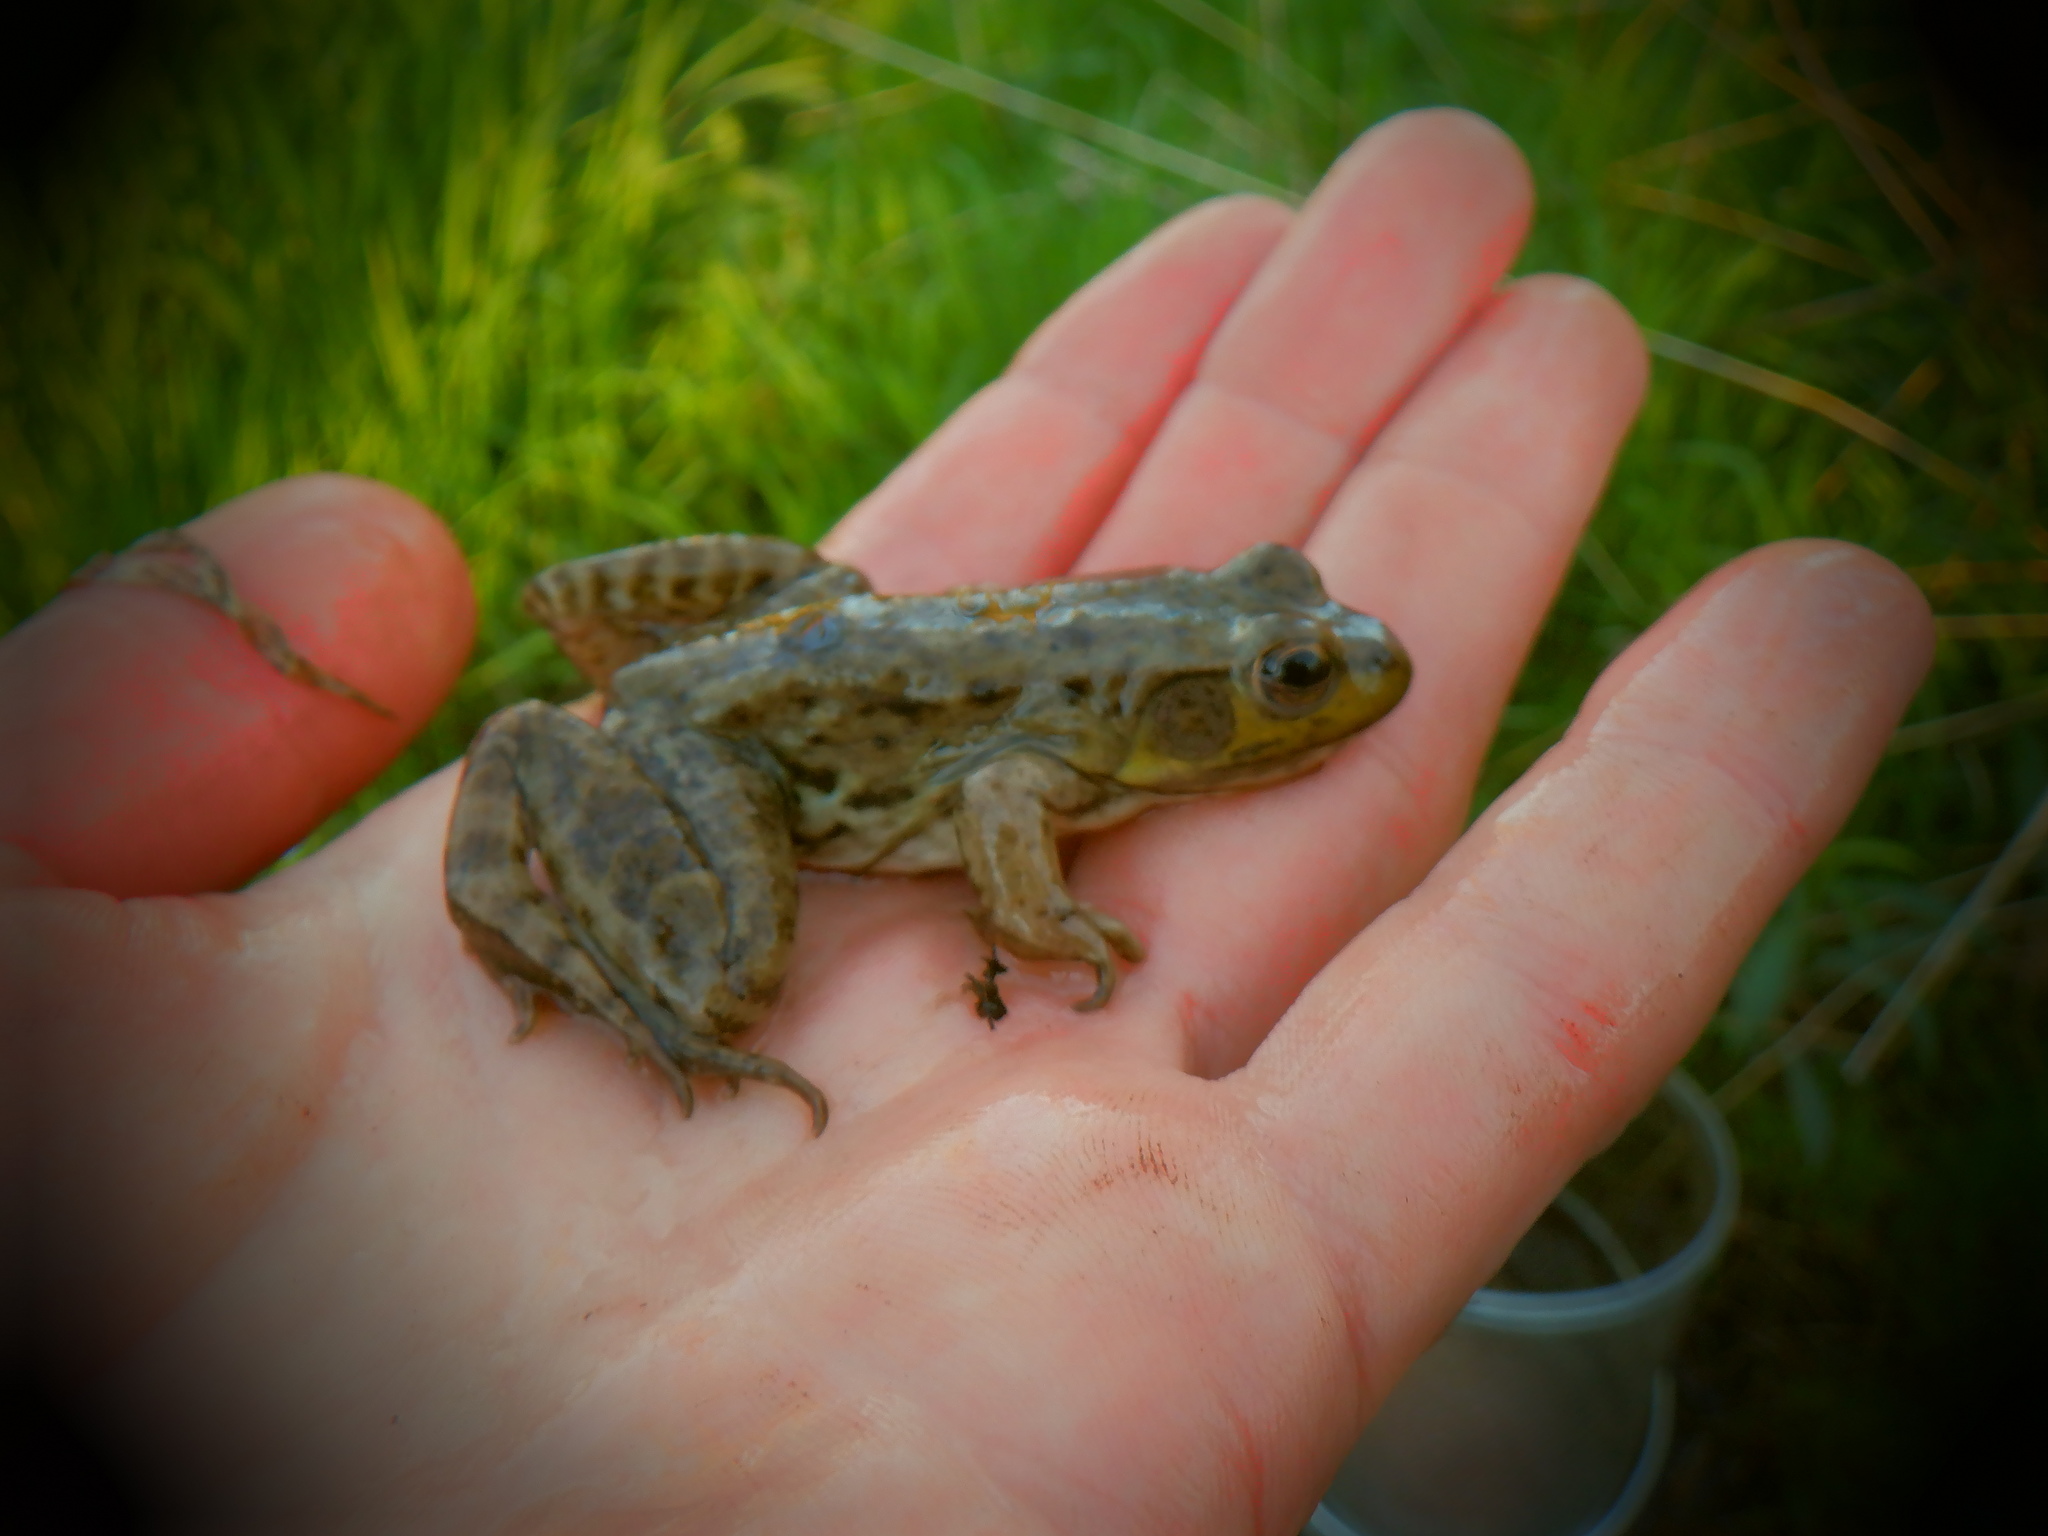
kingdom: Animalia
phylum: Chordata
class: Amphibia
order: Anura
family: Ranidae
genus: Lithobates
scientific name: Lithobates catesbeianus
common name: American bullfrog
